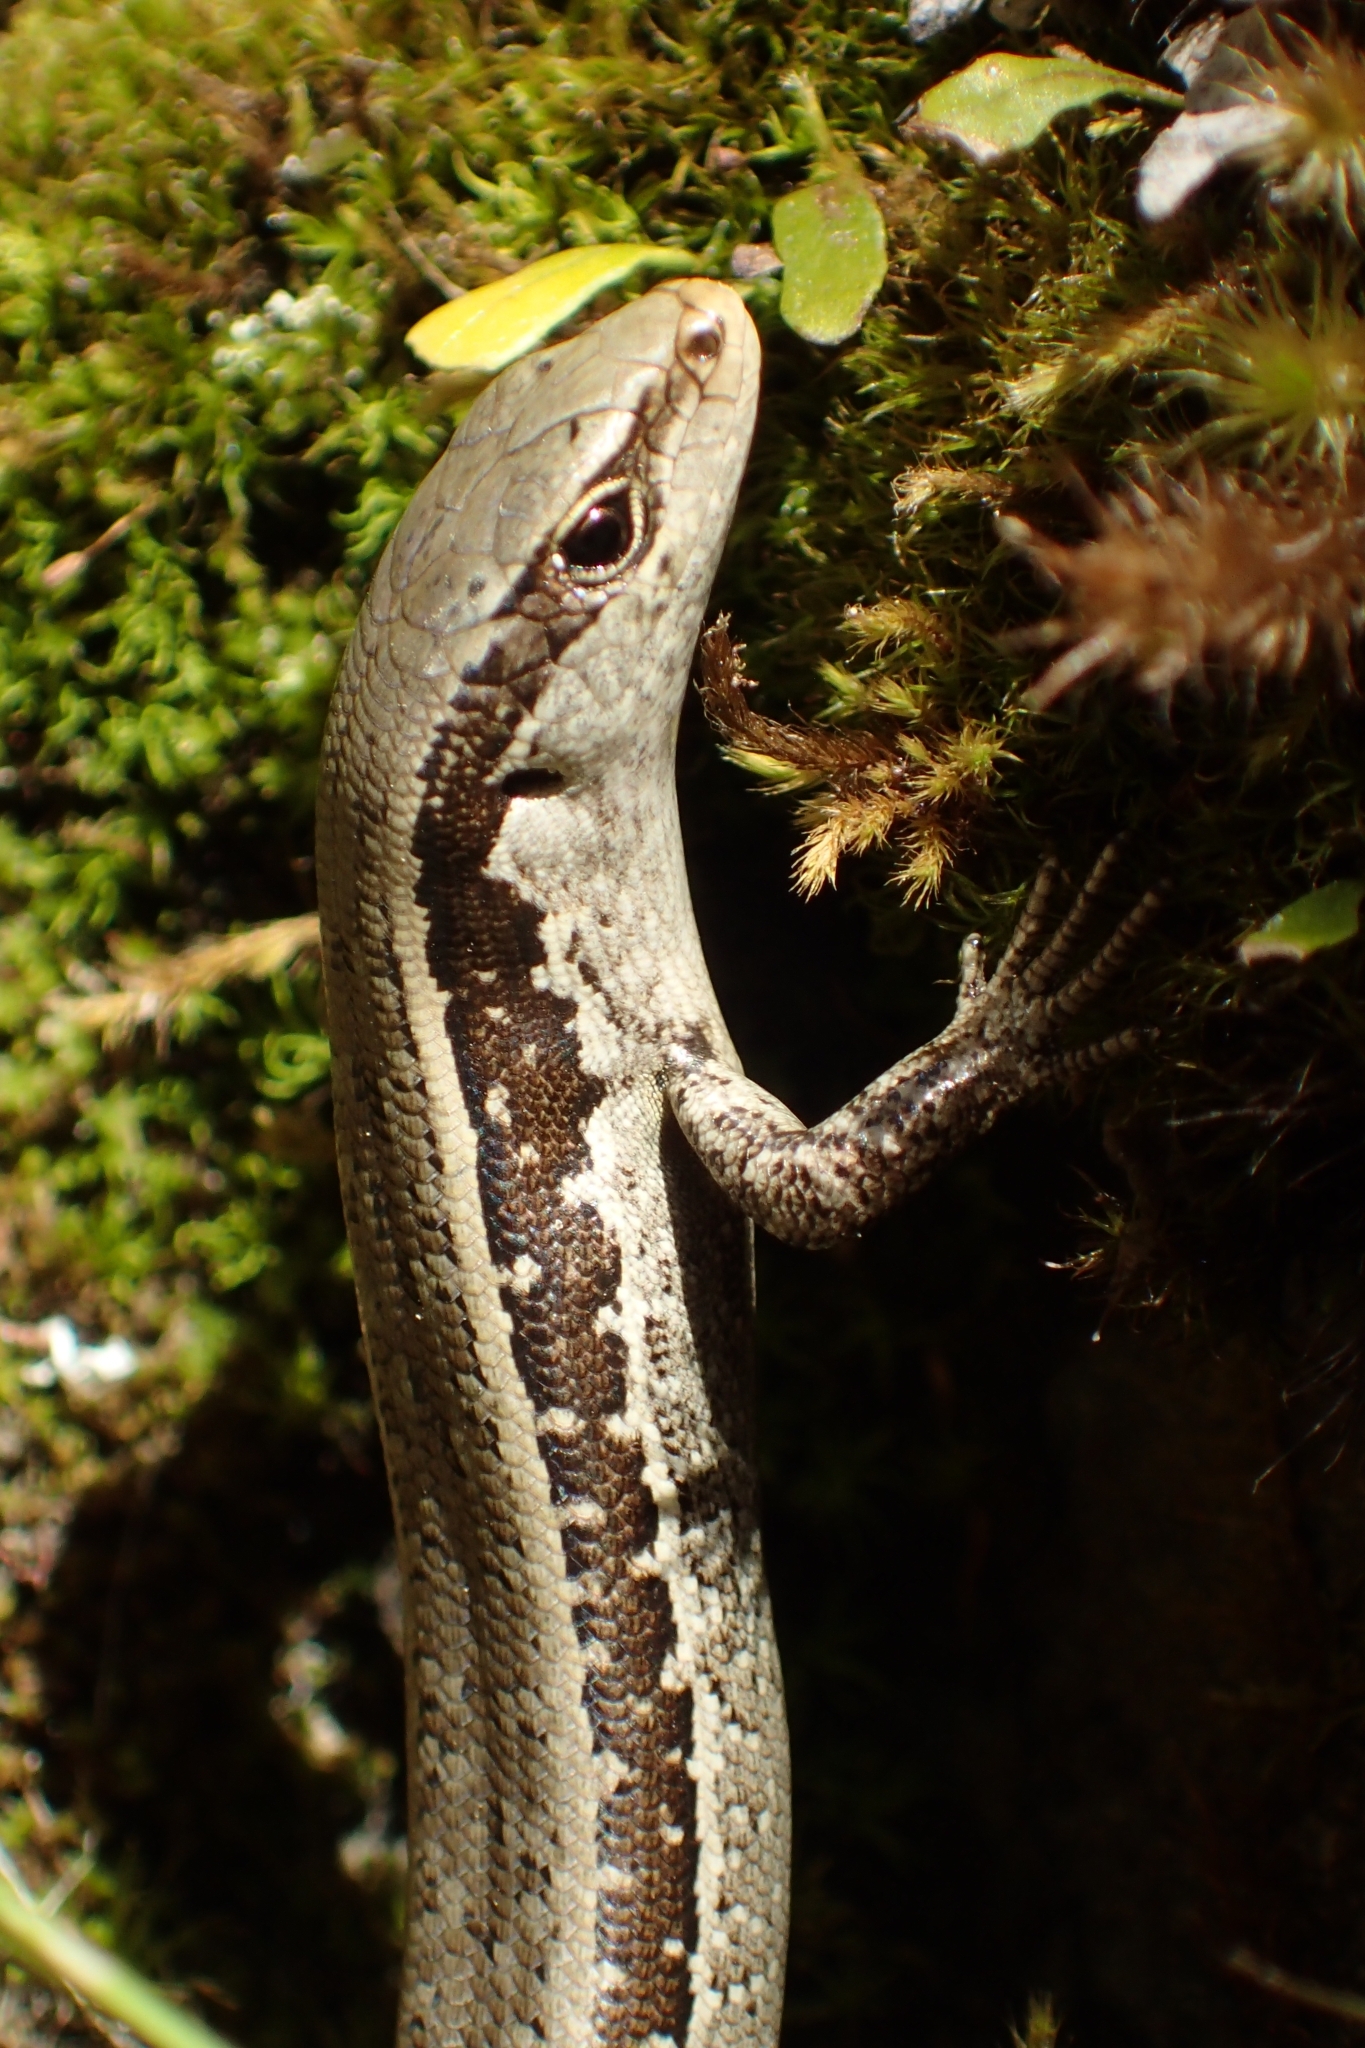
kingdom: Animalia
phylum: Chordata
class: Squamata
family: Scincidae
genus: Oligosoma
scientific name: Oligosoma microlepis
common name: Small-scaled skink
